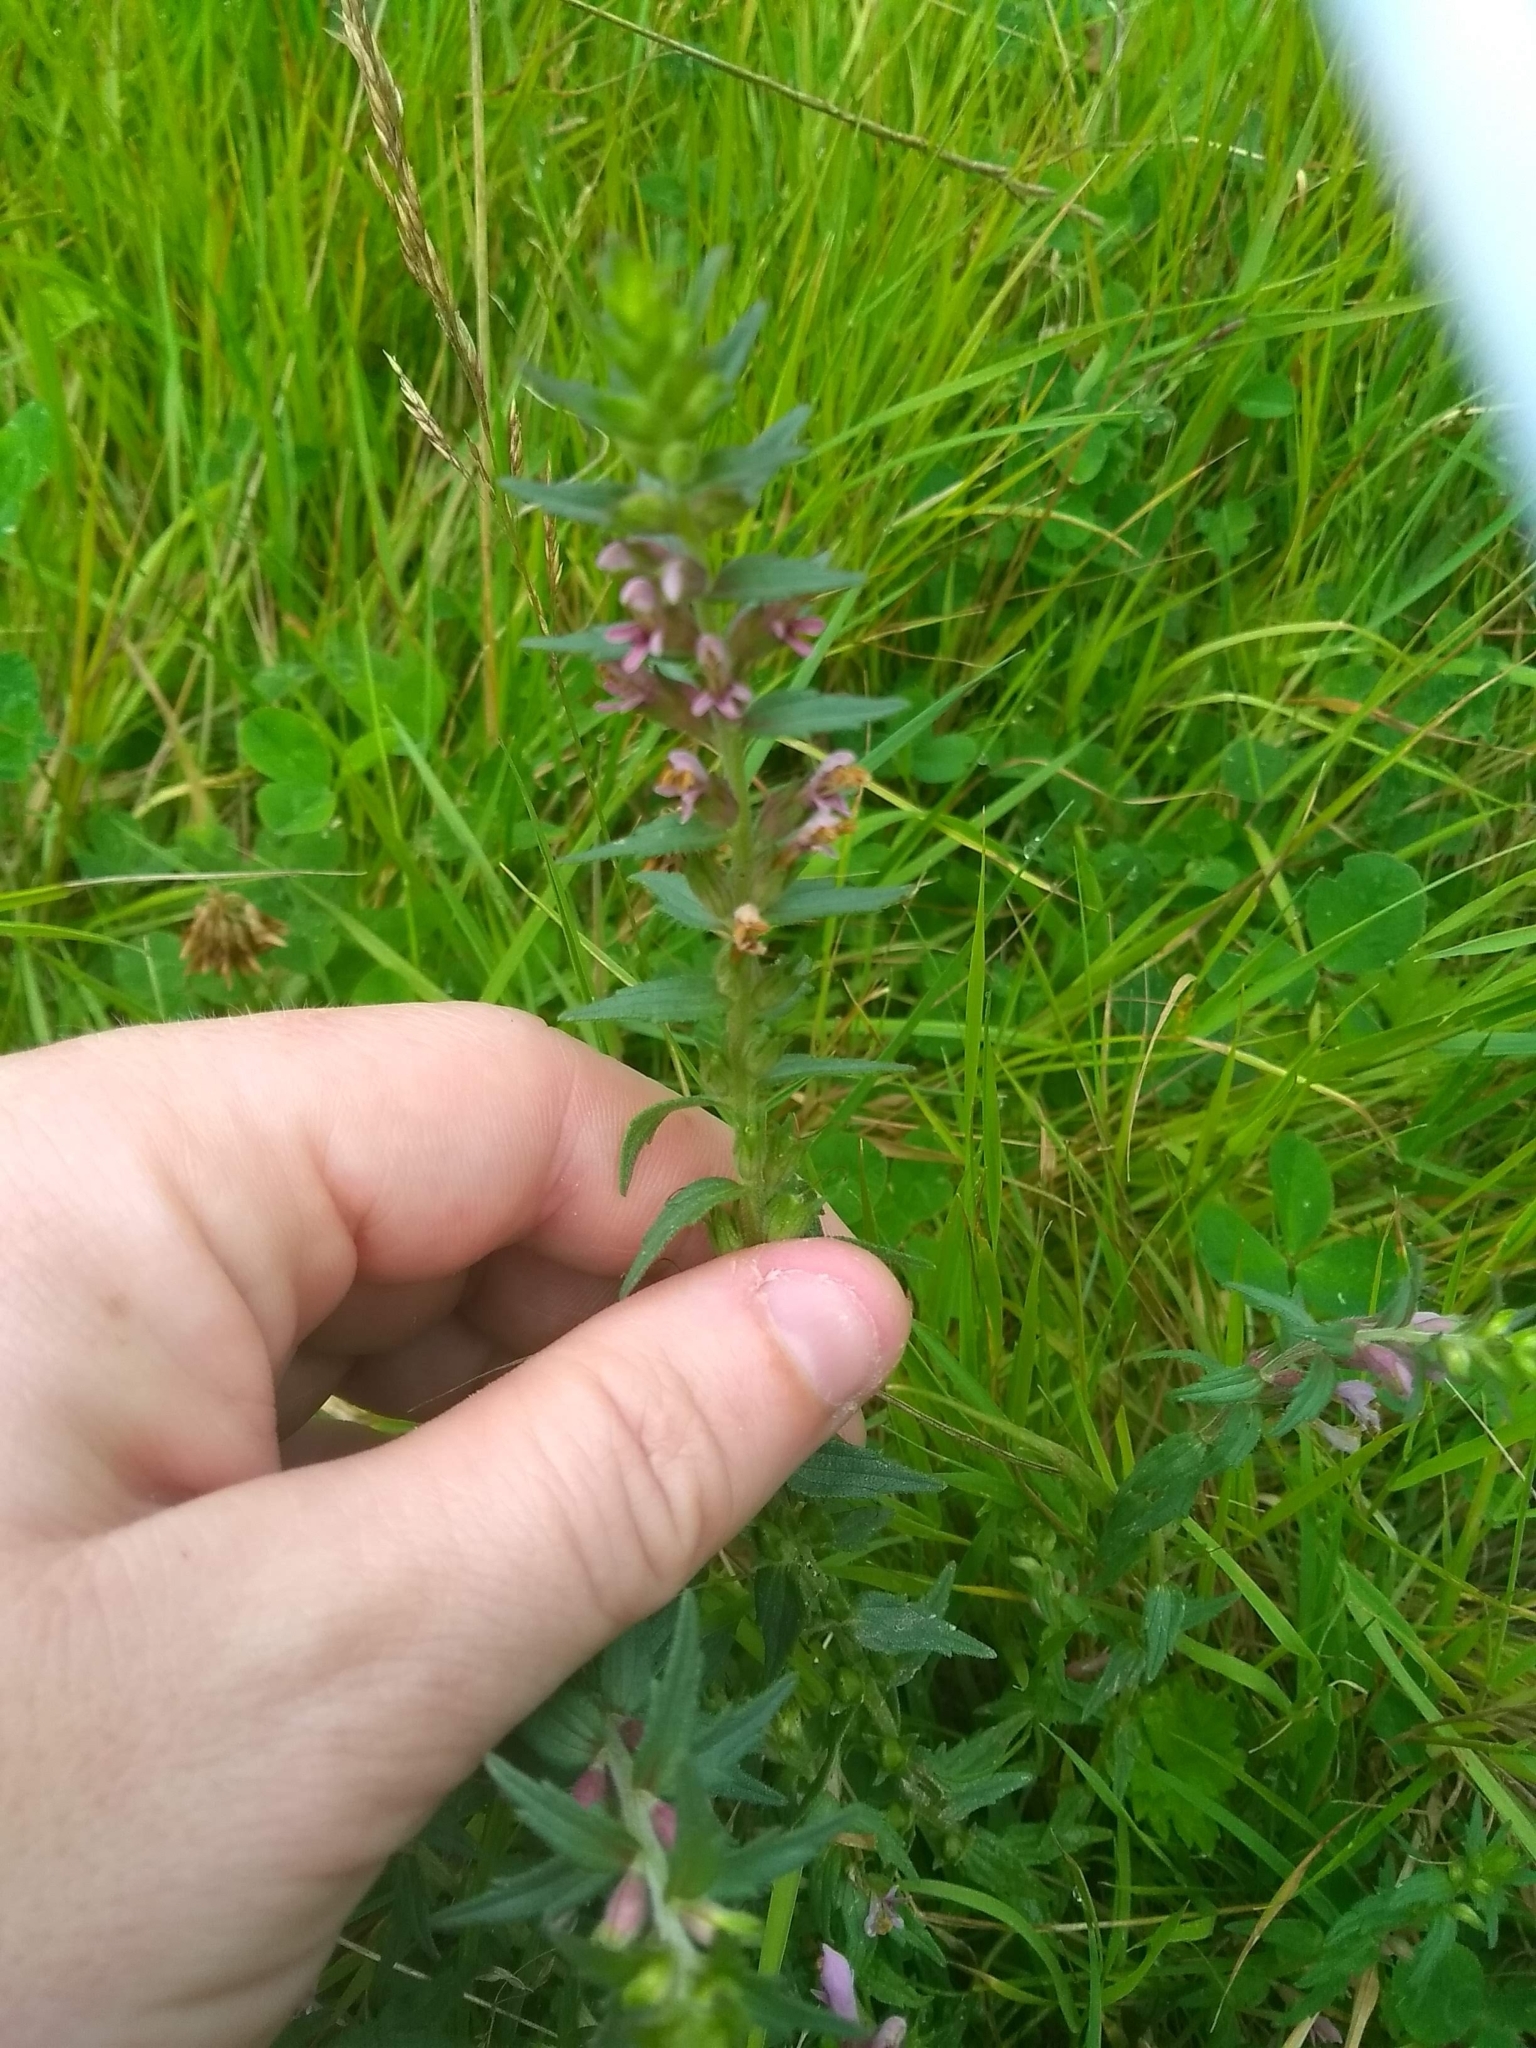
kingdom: Plantae
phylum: Tracheophyta
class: Magnoliopsida
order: Lamiales
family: Orobanchaceae
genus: Odontites
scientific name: Odontites vernus
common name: Red bartsia
